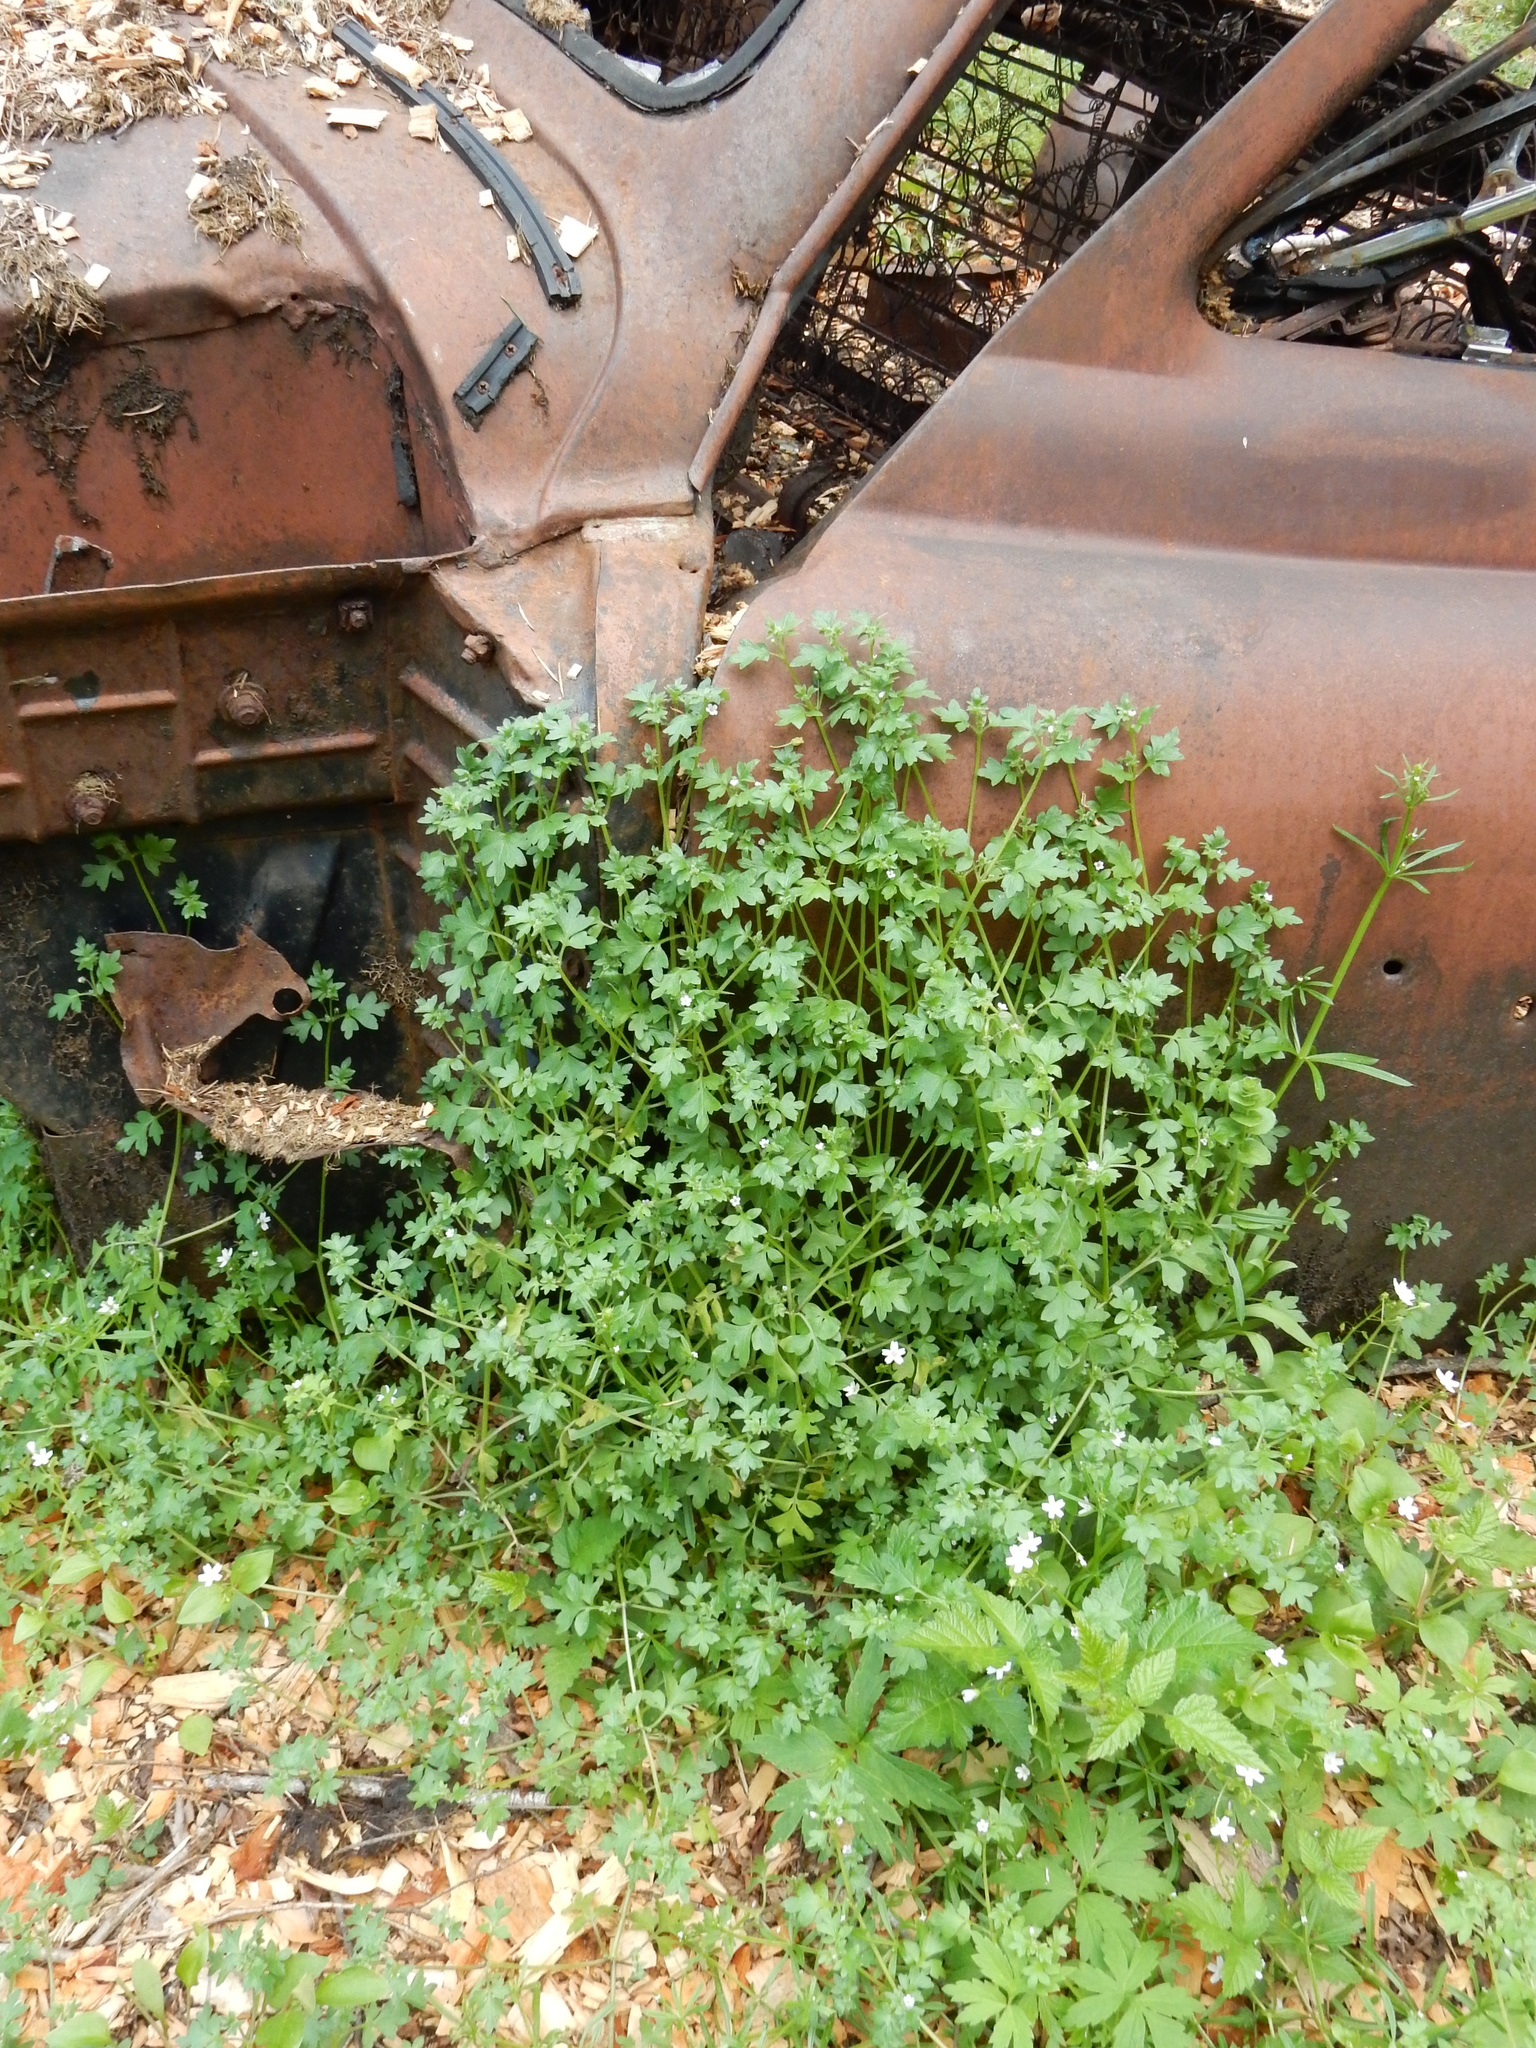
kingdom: Plantae
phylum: Tracheophyta
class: Magnoliopsida
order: Boraginales
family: Hydrophyllaceae
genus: Nemophila
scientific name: Nemophila parviflora
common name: Small-flowered baby-blue-eyes
